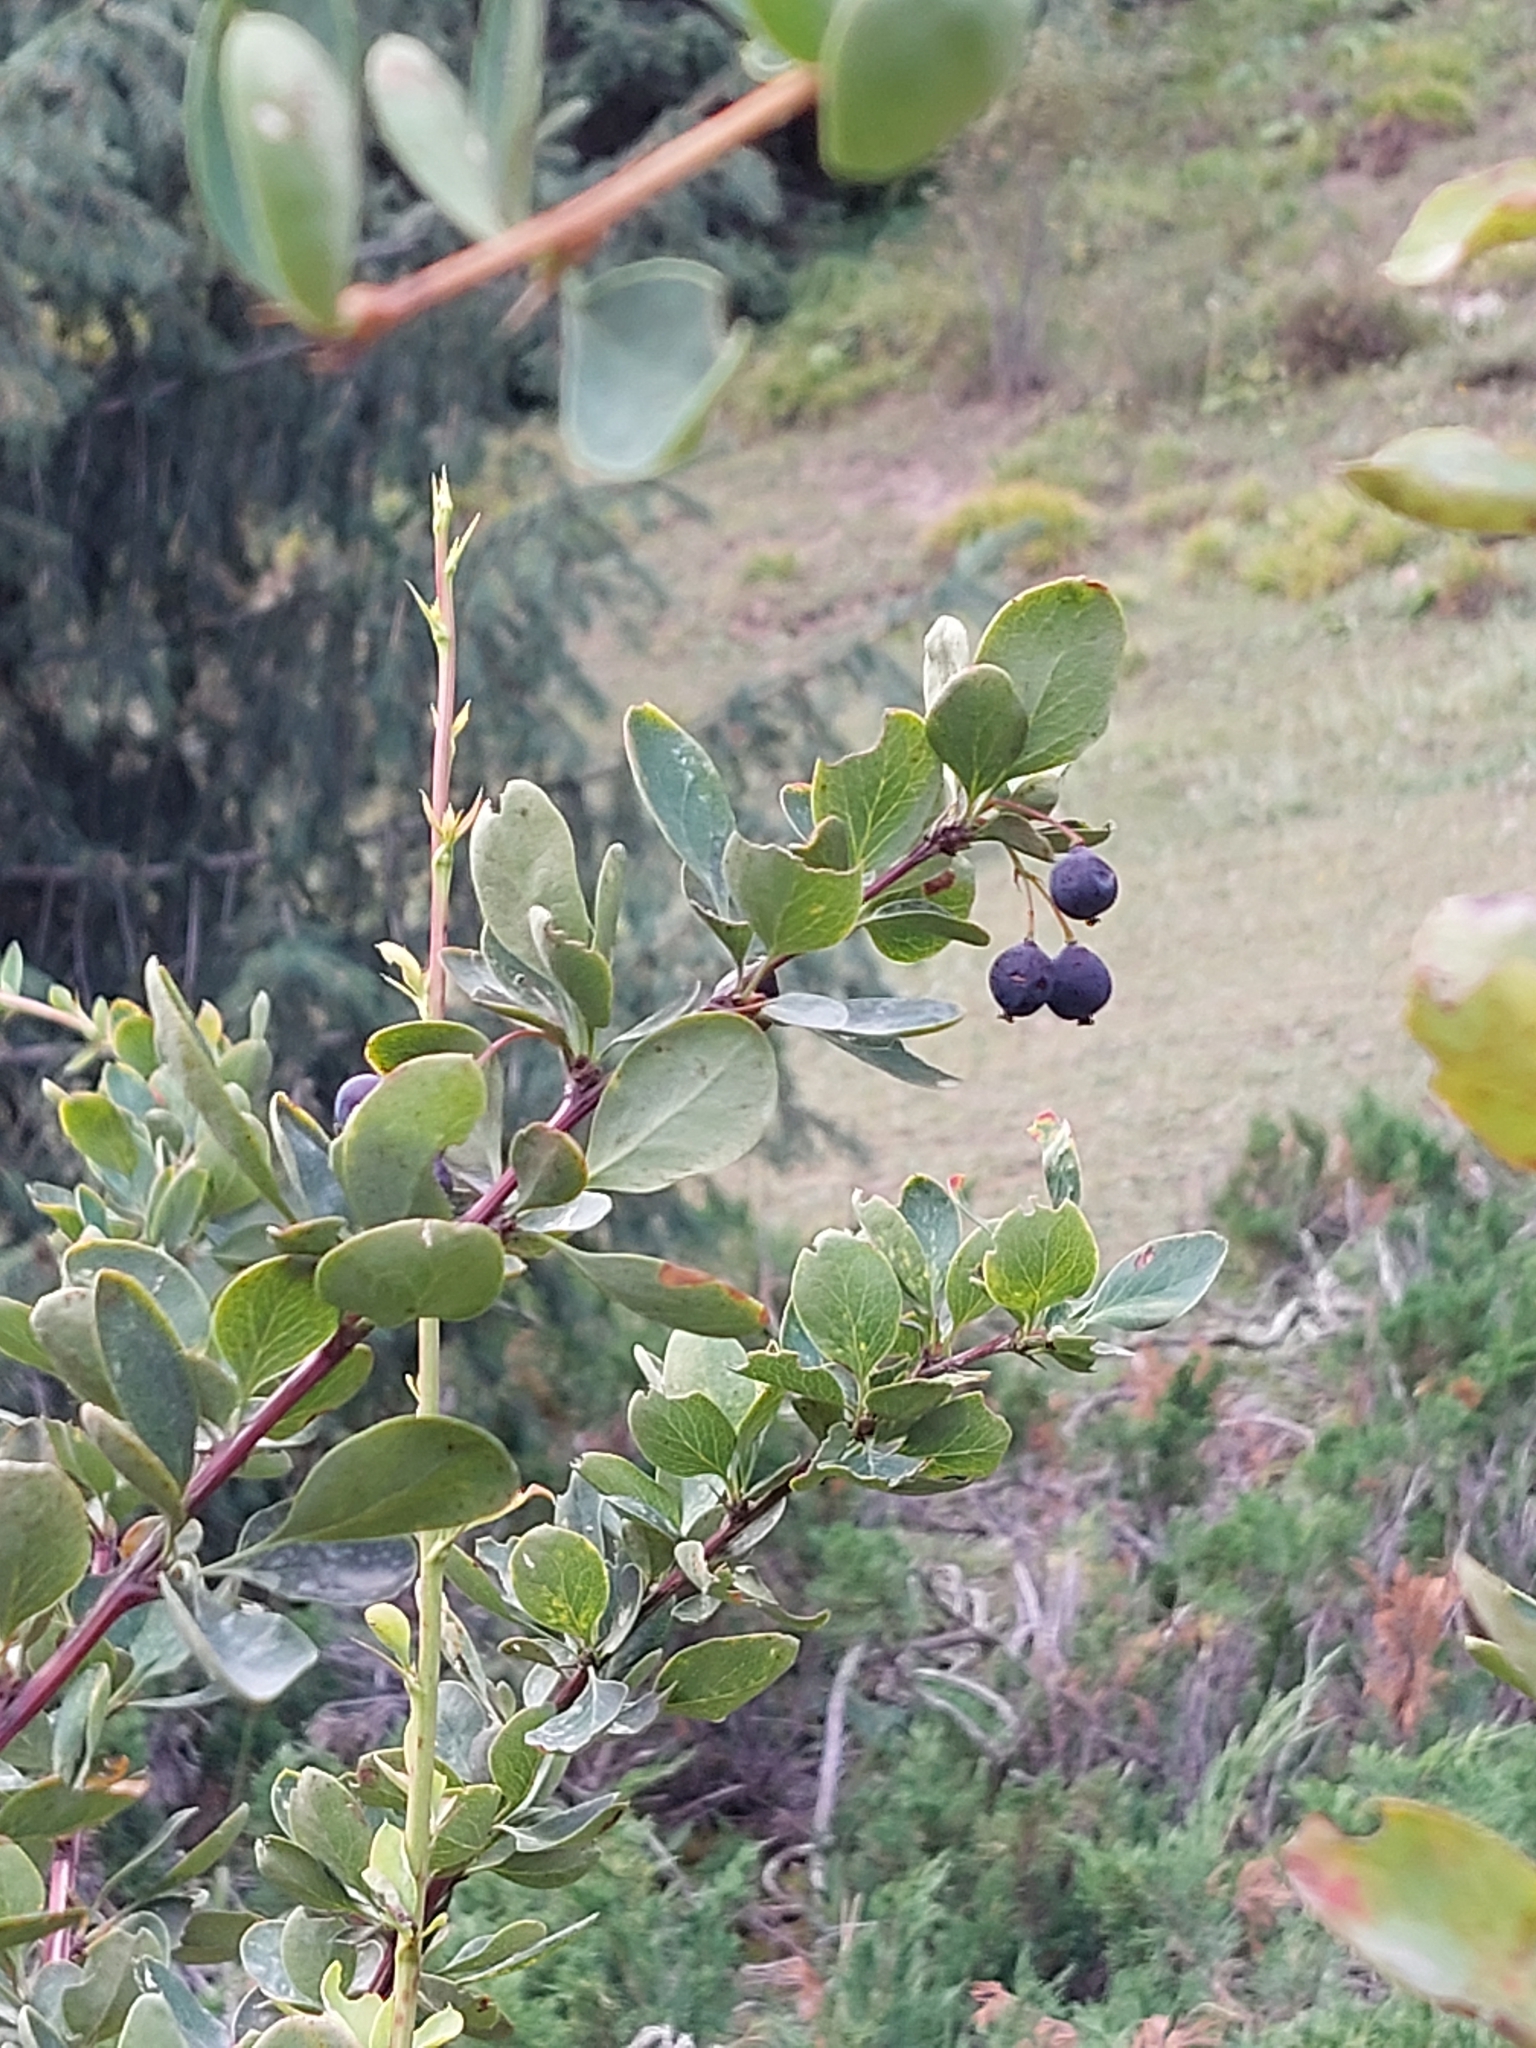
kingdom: Plantae
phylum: Tracheophyta
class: Magnoliopsida
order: Ranunculales
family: Berberidaceae
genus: Berberis
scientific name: Berberis heteropoda
